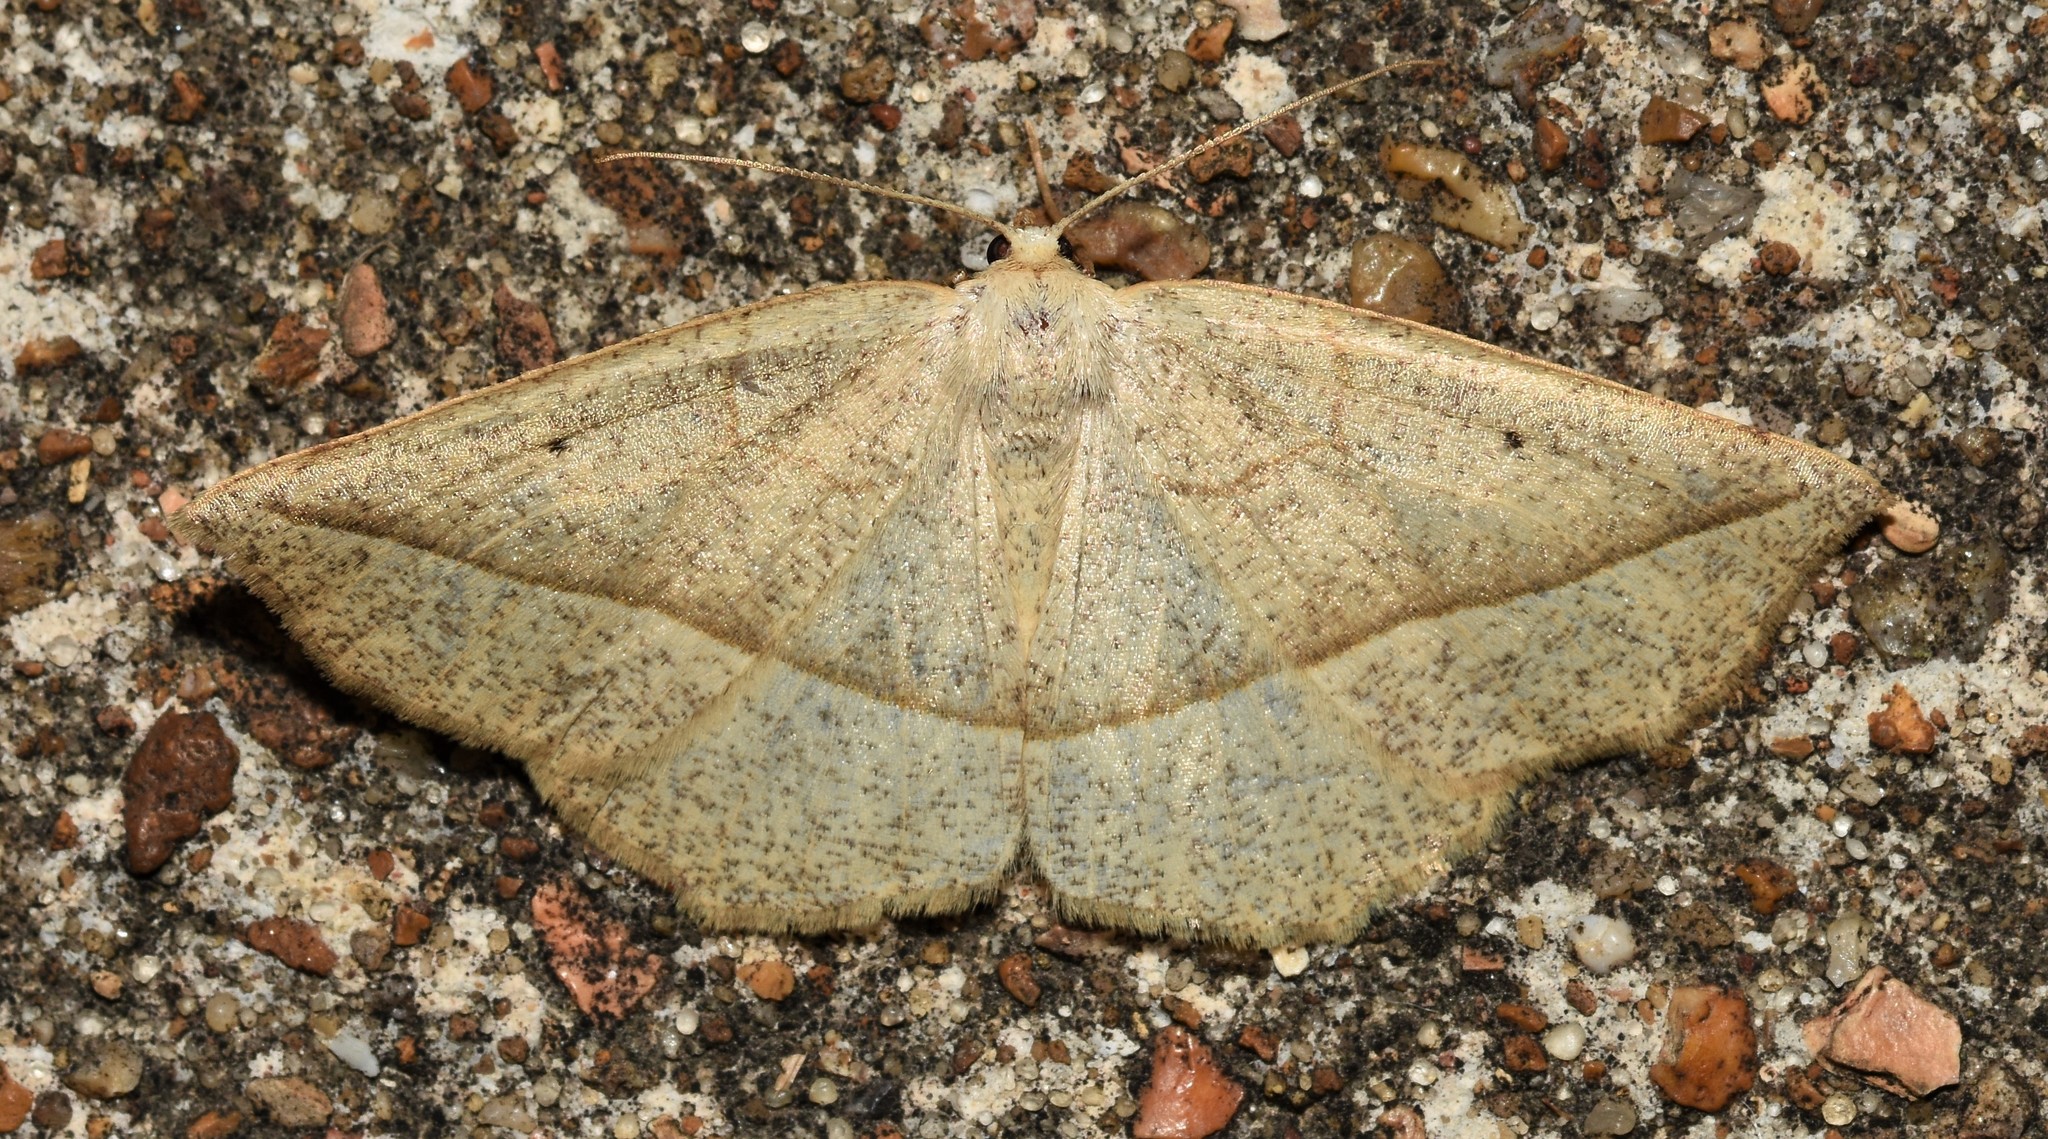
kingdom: Animalia
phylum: Arthropoda
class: Insecta
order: Lepidoptera
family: Geometridae
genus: Eusarca
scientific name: Eusarca confusaria
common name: Confused eusarca
